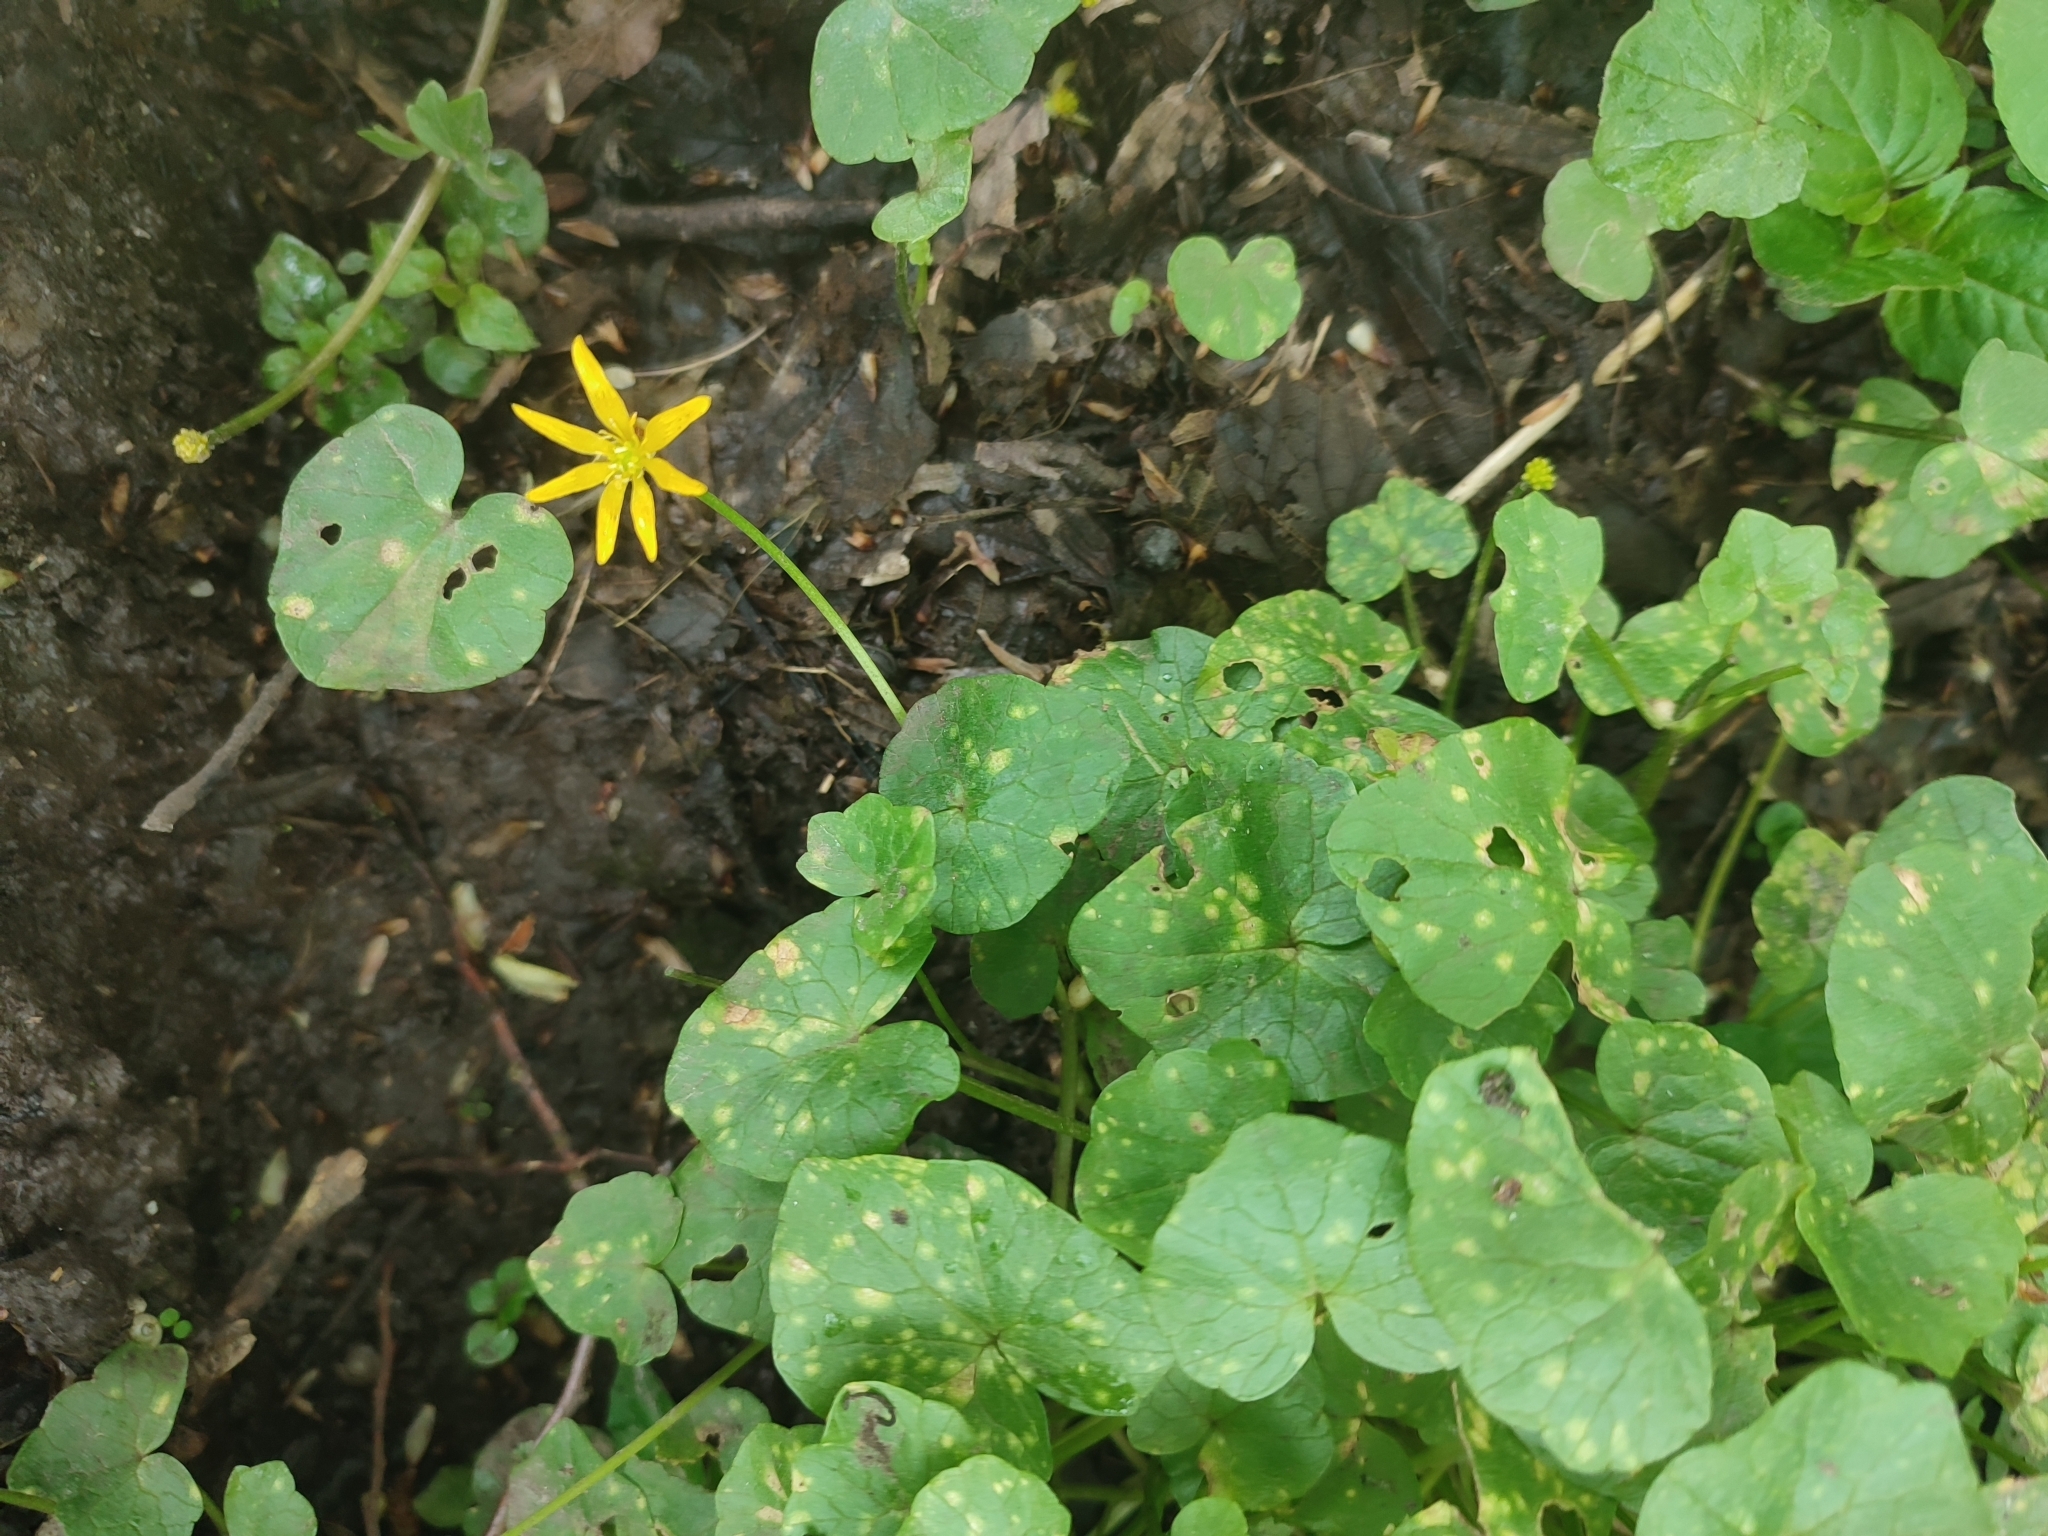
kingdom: Plantae
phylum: Tracheophyta
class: Magnoliopsida
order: Ranunculales
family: Ranunculaceae
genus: Ficaria
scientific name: Ficaria verna
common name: Lesser celandine
